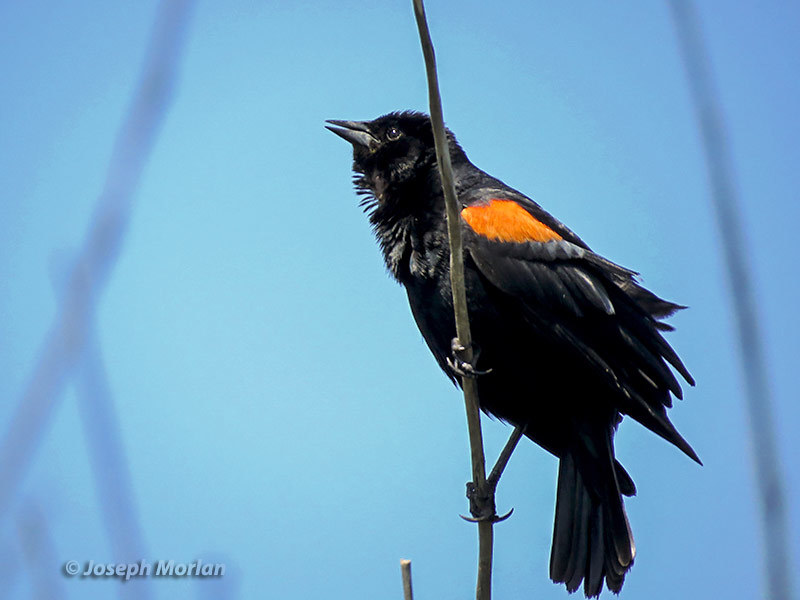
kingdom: Animalia
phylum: Chordata
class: Aves
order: Passeriformes
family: Icteridae
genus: Agelaius
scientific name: Agelaius phoeniceus
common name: Red-winged blackbird
